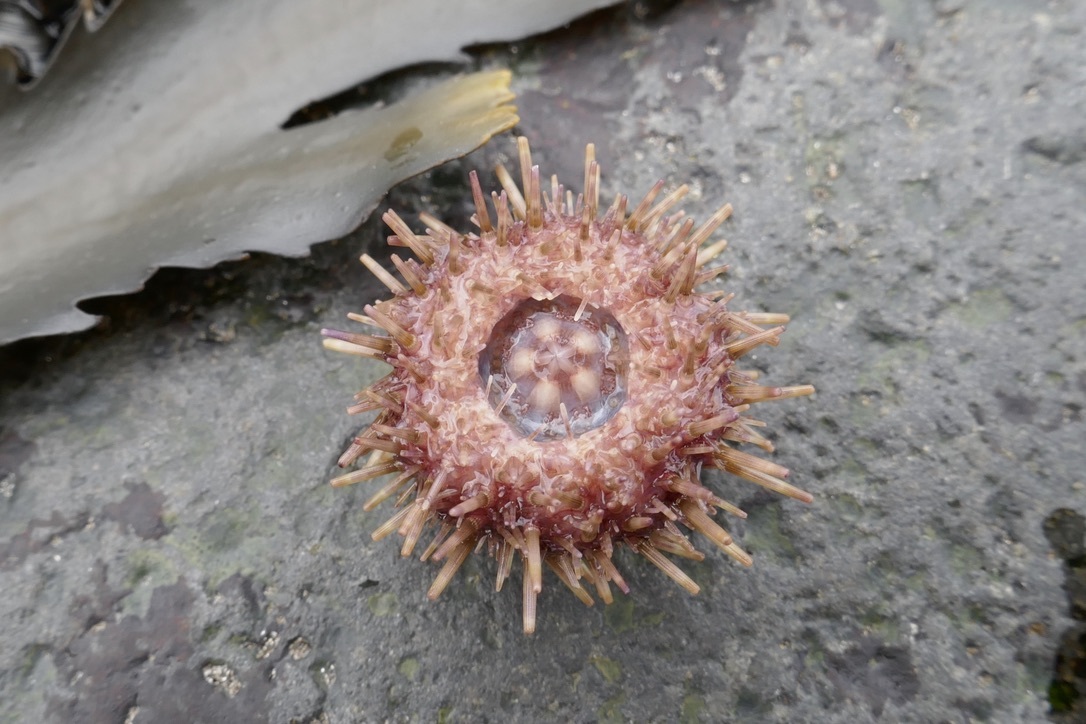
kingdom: Animalia
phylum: Echinodermata
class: Echinoidea
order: Camarodonta
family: Strongylocentrotidae
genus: Strongylocentrotus
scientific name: Strongylocentrotus droebachiensis
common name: Northern sea urchin
